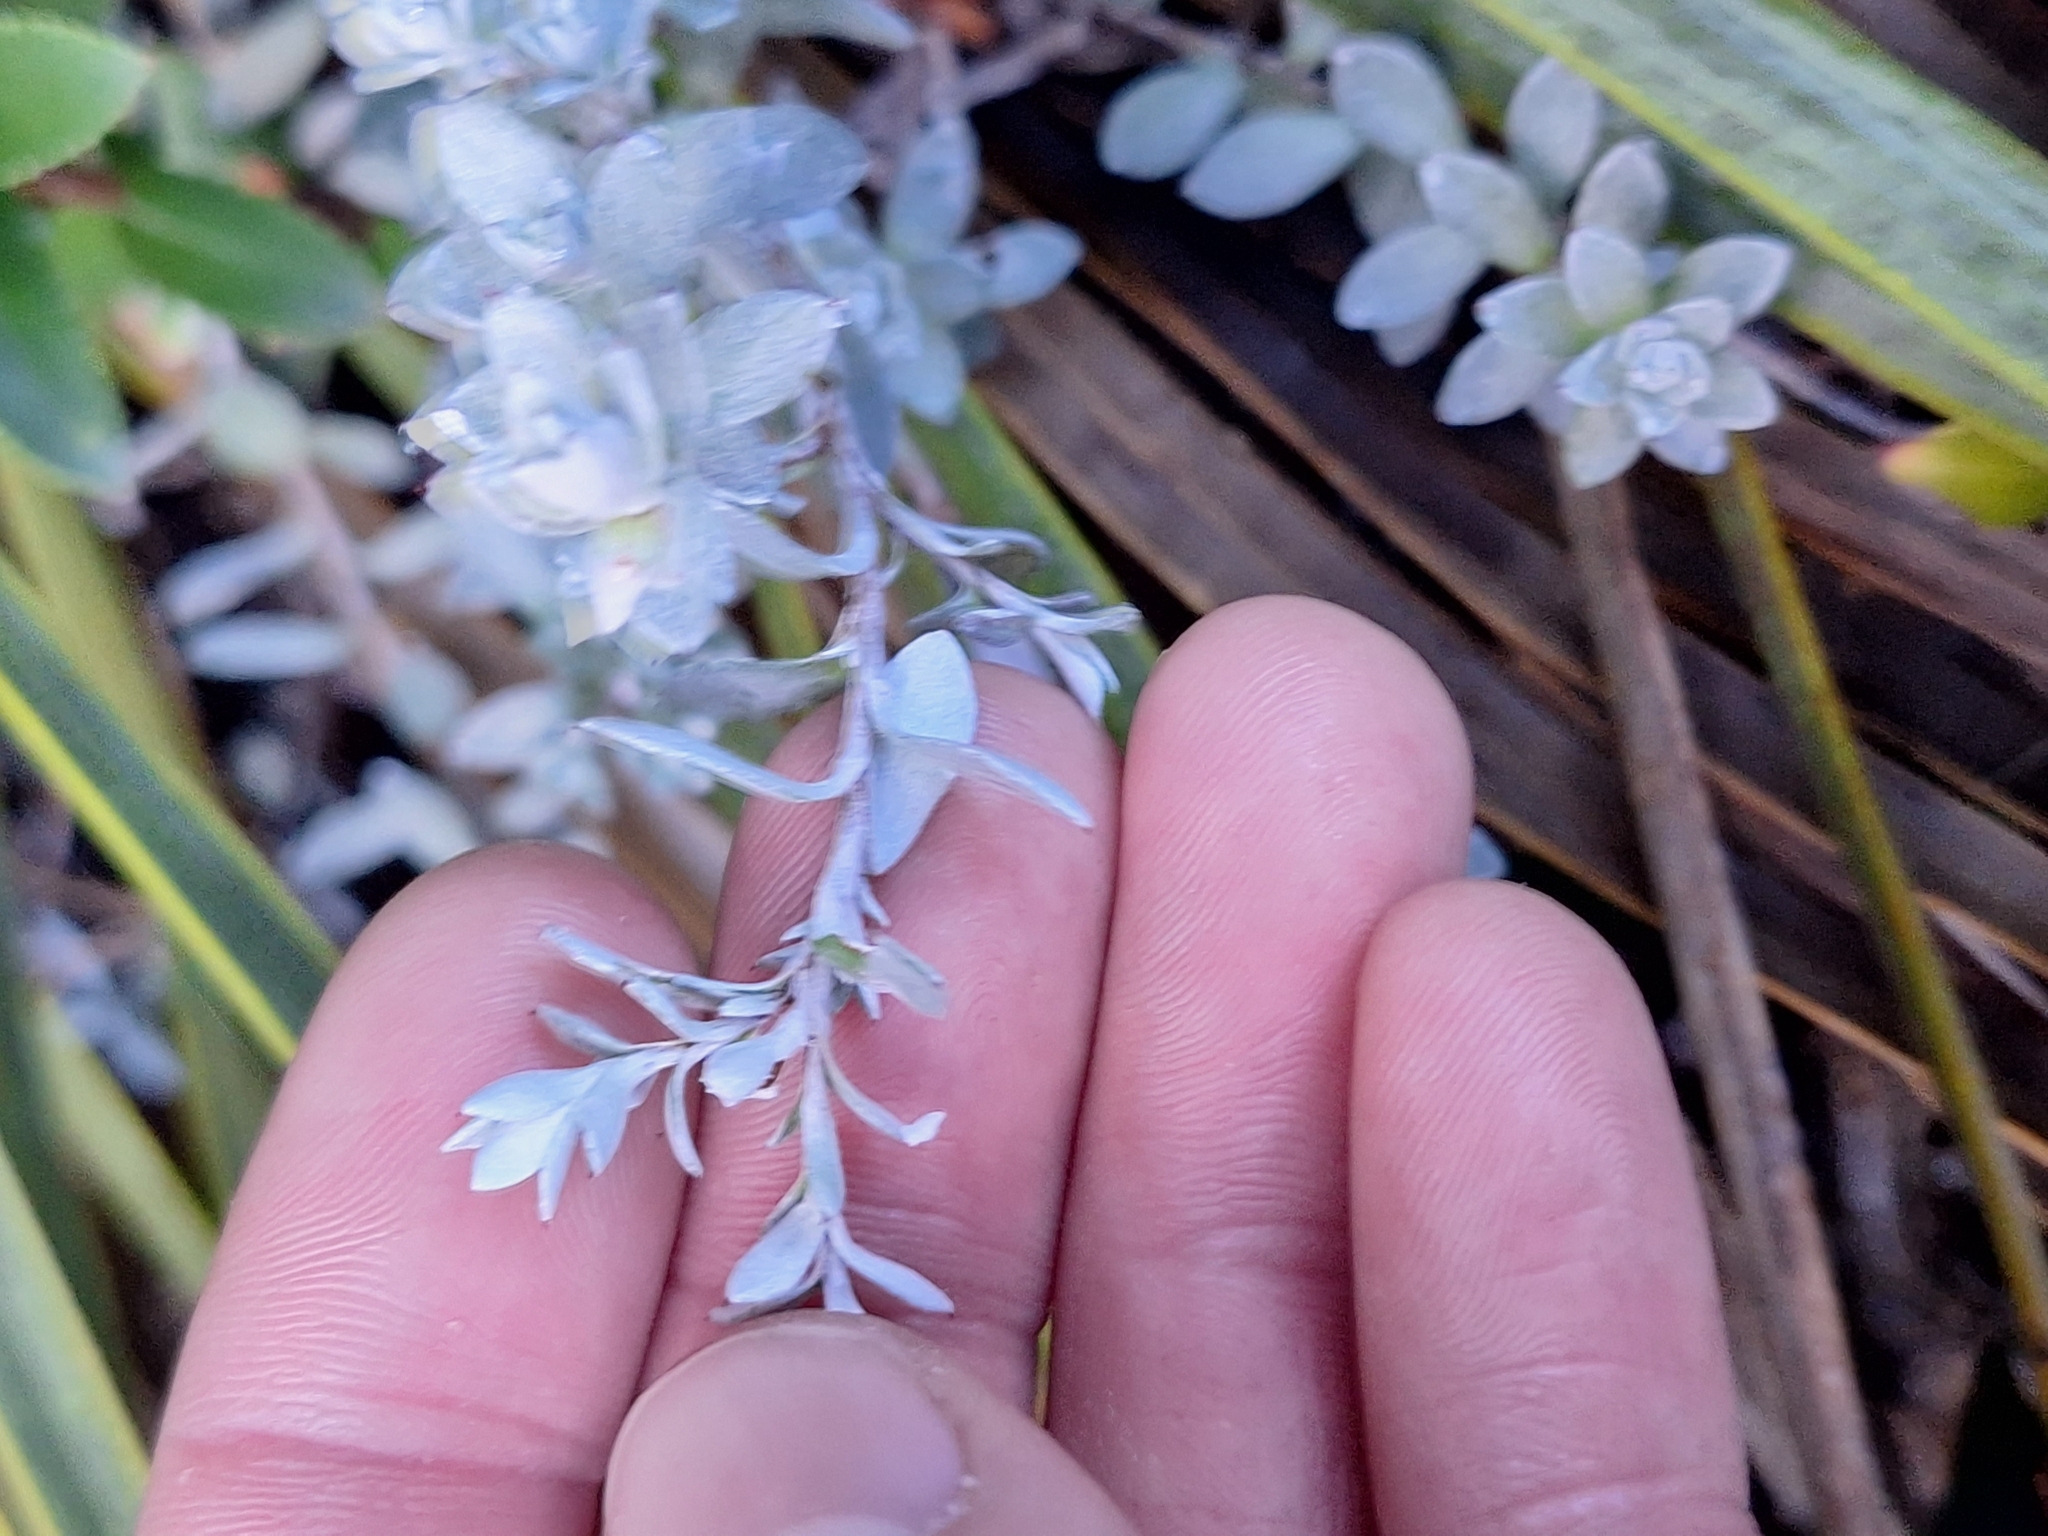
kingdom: Plantae
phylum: Tracheophyta
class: Magnoliopsida
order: Asterales
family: Asteraceae
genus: Anaphalioides
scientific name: Anaphalioides bellidioides
